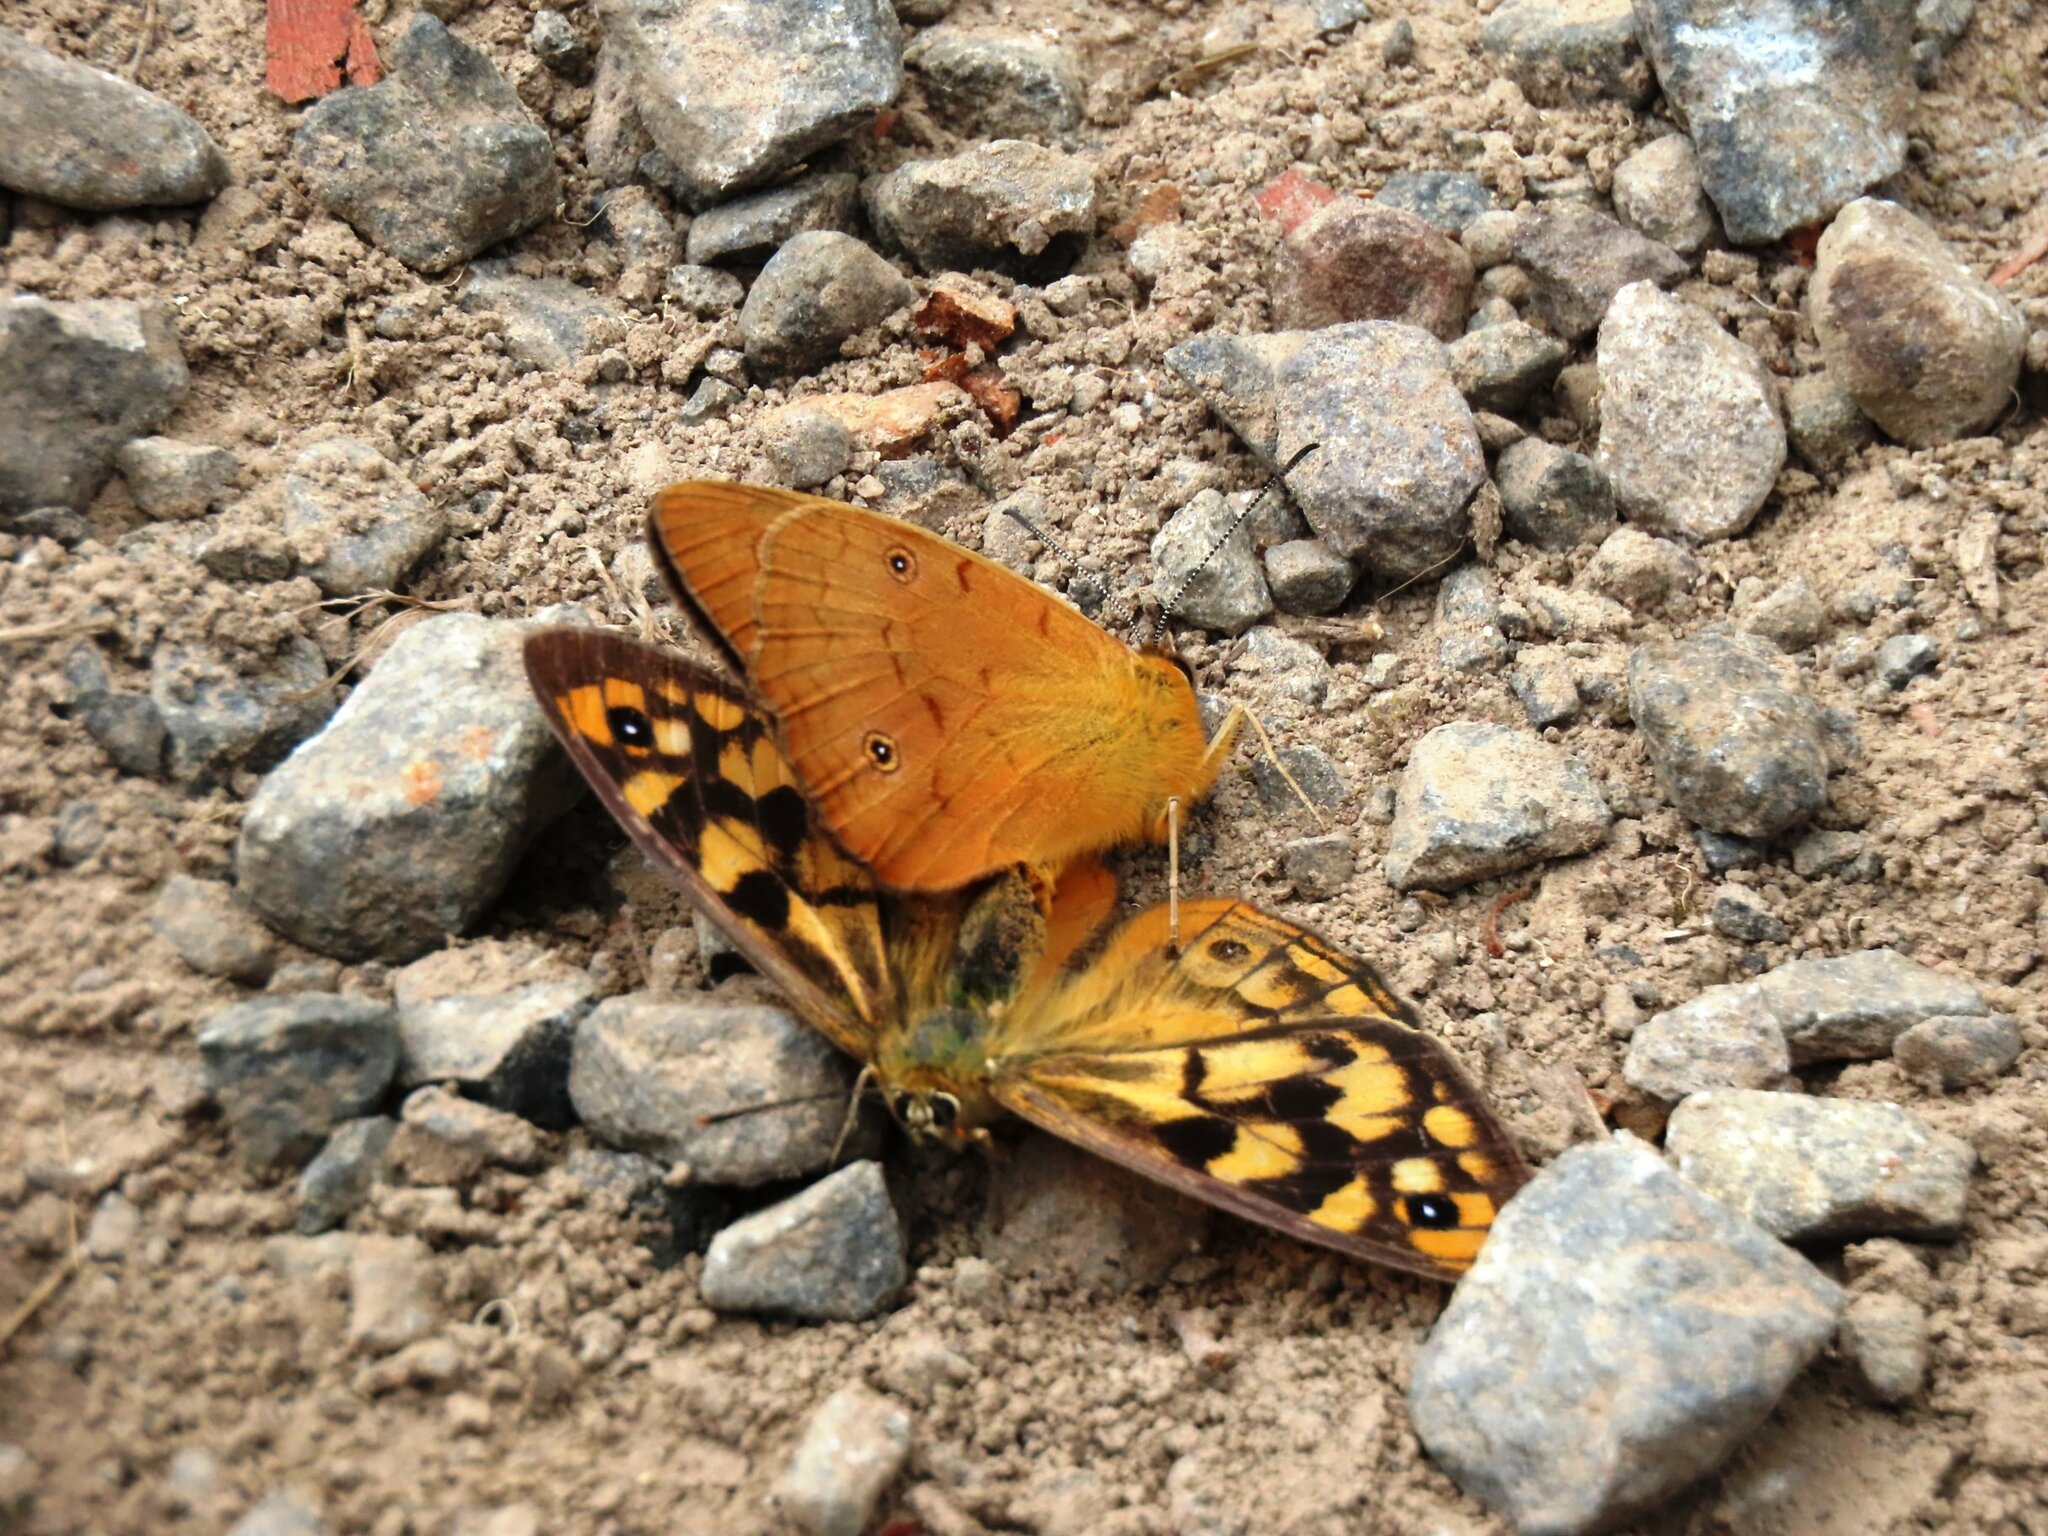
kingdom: Animalia
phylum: Arthropoda
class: Insecta
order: Lepidoptera
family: Nymphalidae
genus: Heteronympha
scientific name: Heteronympha penelope
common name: Shouldered brown
